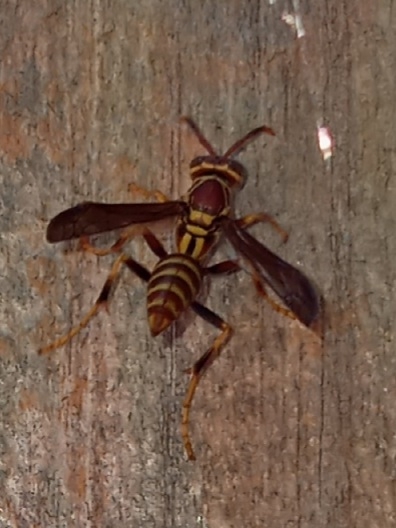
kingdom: Animalia
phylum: Arthropoda
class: Insecta
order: Hymenoptera
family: Eumenidae
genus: Polistes
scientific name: Polistes exclamans
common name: Paper wasp
